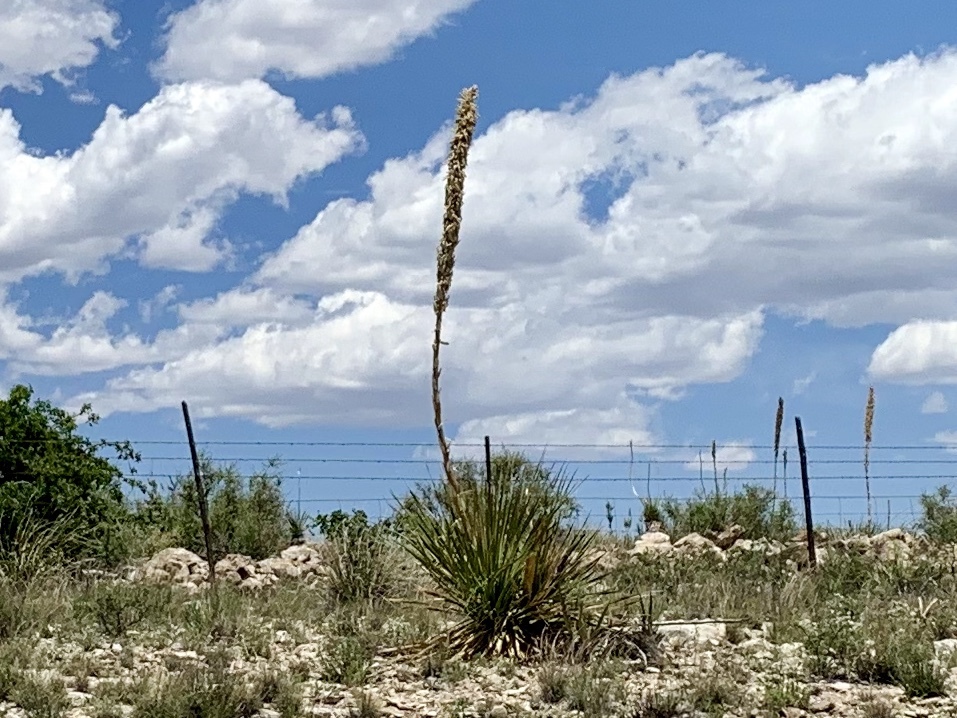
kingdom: Plantae
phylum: Tracheophyta
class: Liliopsida
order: Asparagales
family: Asparagaceae
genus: Dasylirion
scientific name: Dasylirion wheeleri
